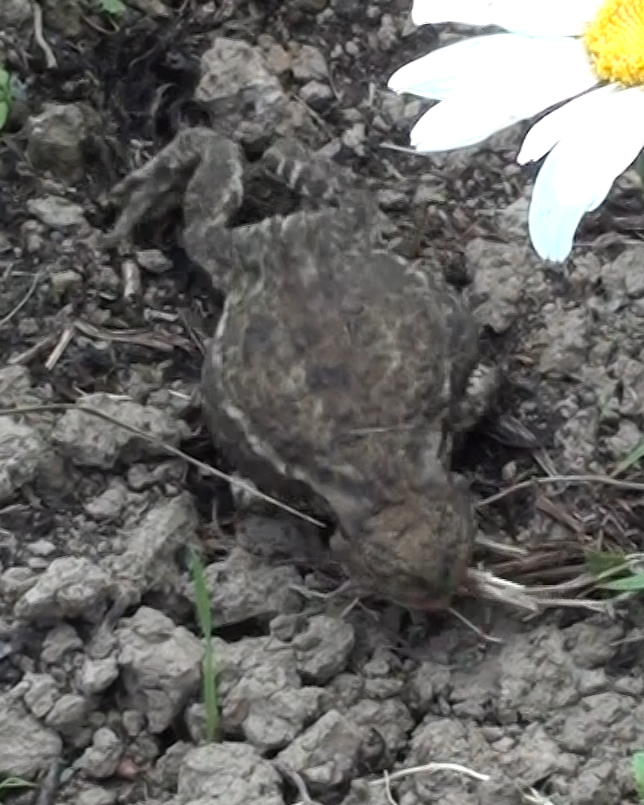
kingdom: Animalia
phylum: Chordata
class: Amphibia
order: Anura
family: Bufonidae
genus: Bufo
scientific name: Bufo bufo
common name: Common toad
